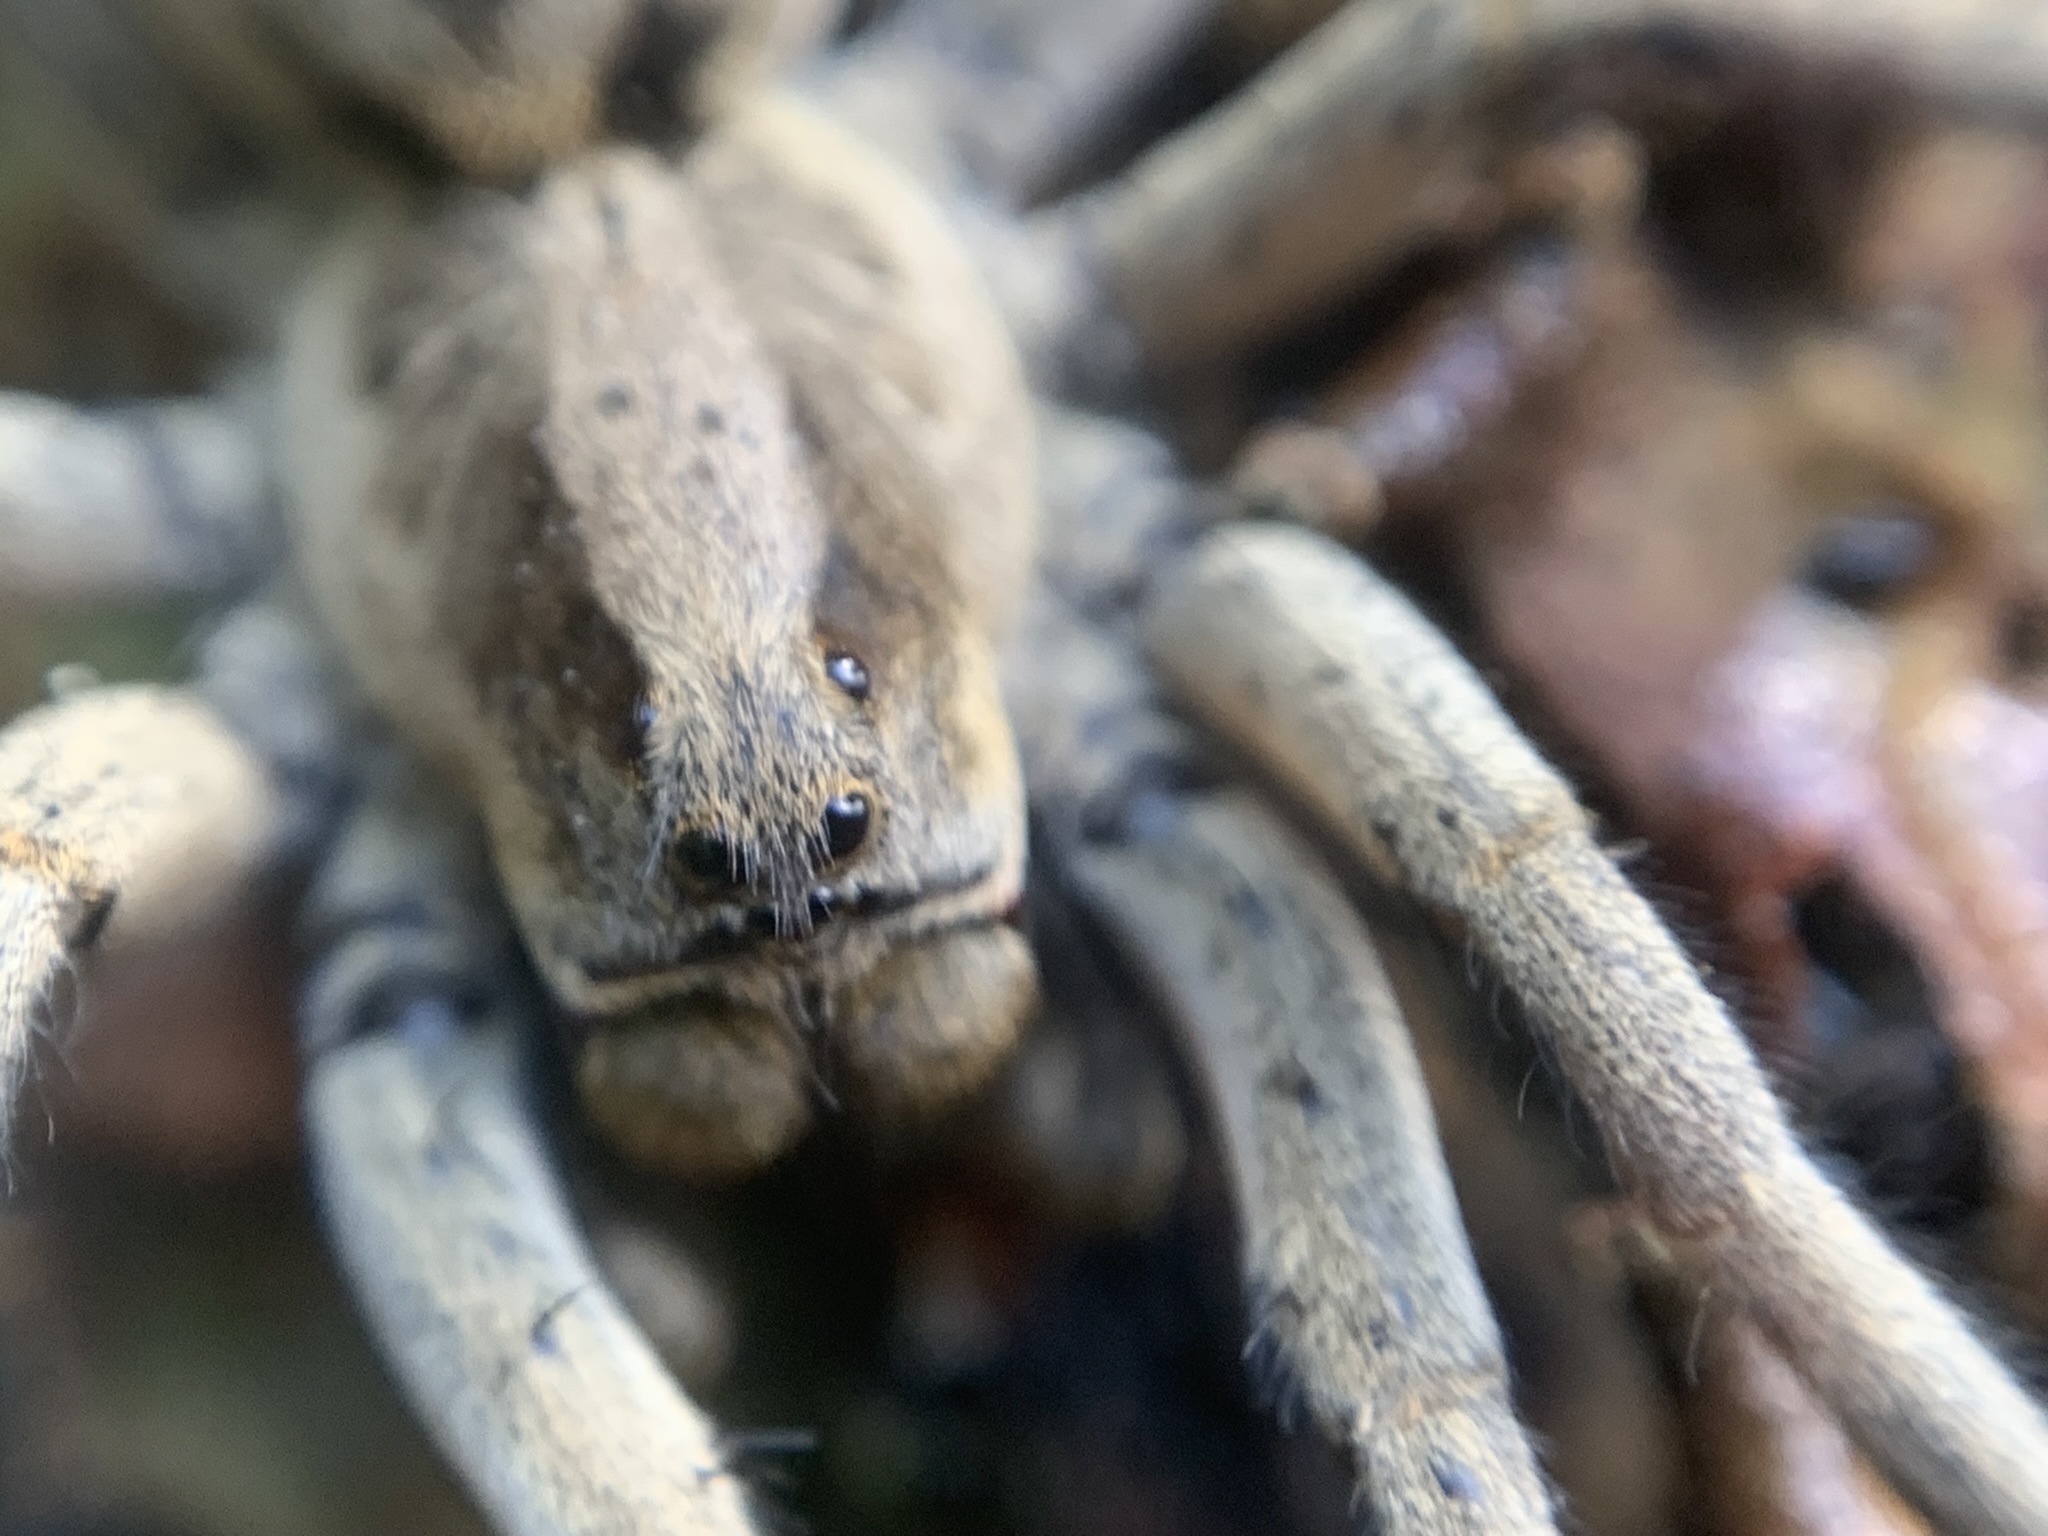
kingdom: Animalia
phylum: Arthropoda
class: Arachnida
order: Araneae
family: Lycosidae
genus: Lycosa
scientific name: Lycosa erythrognatha
